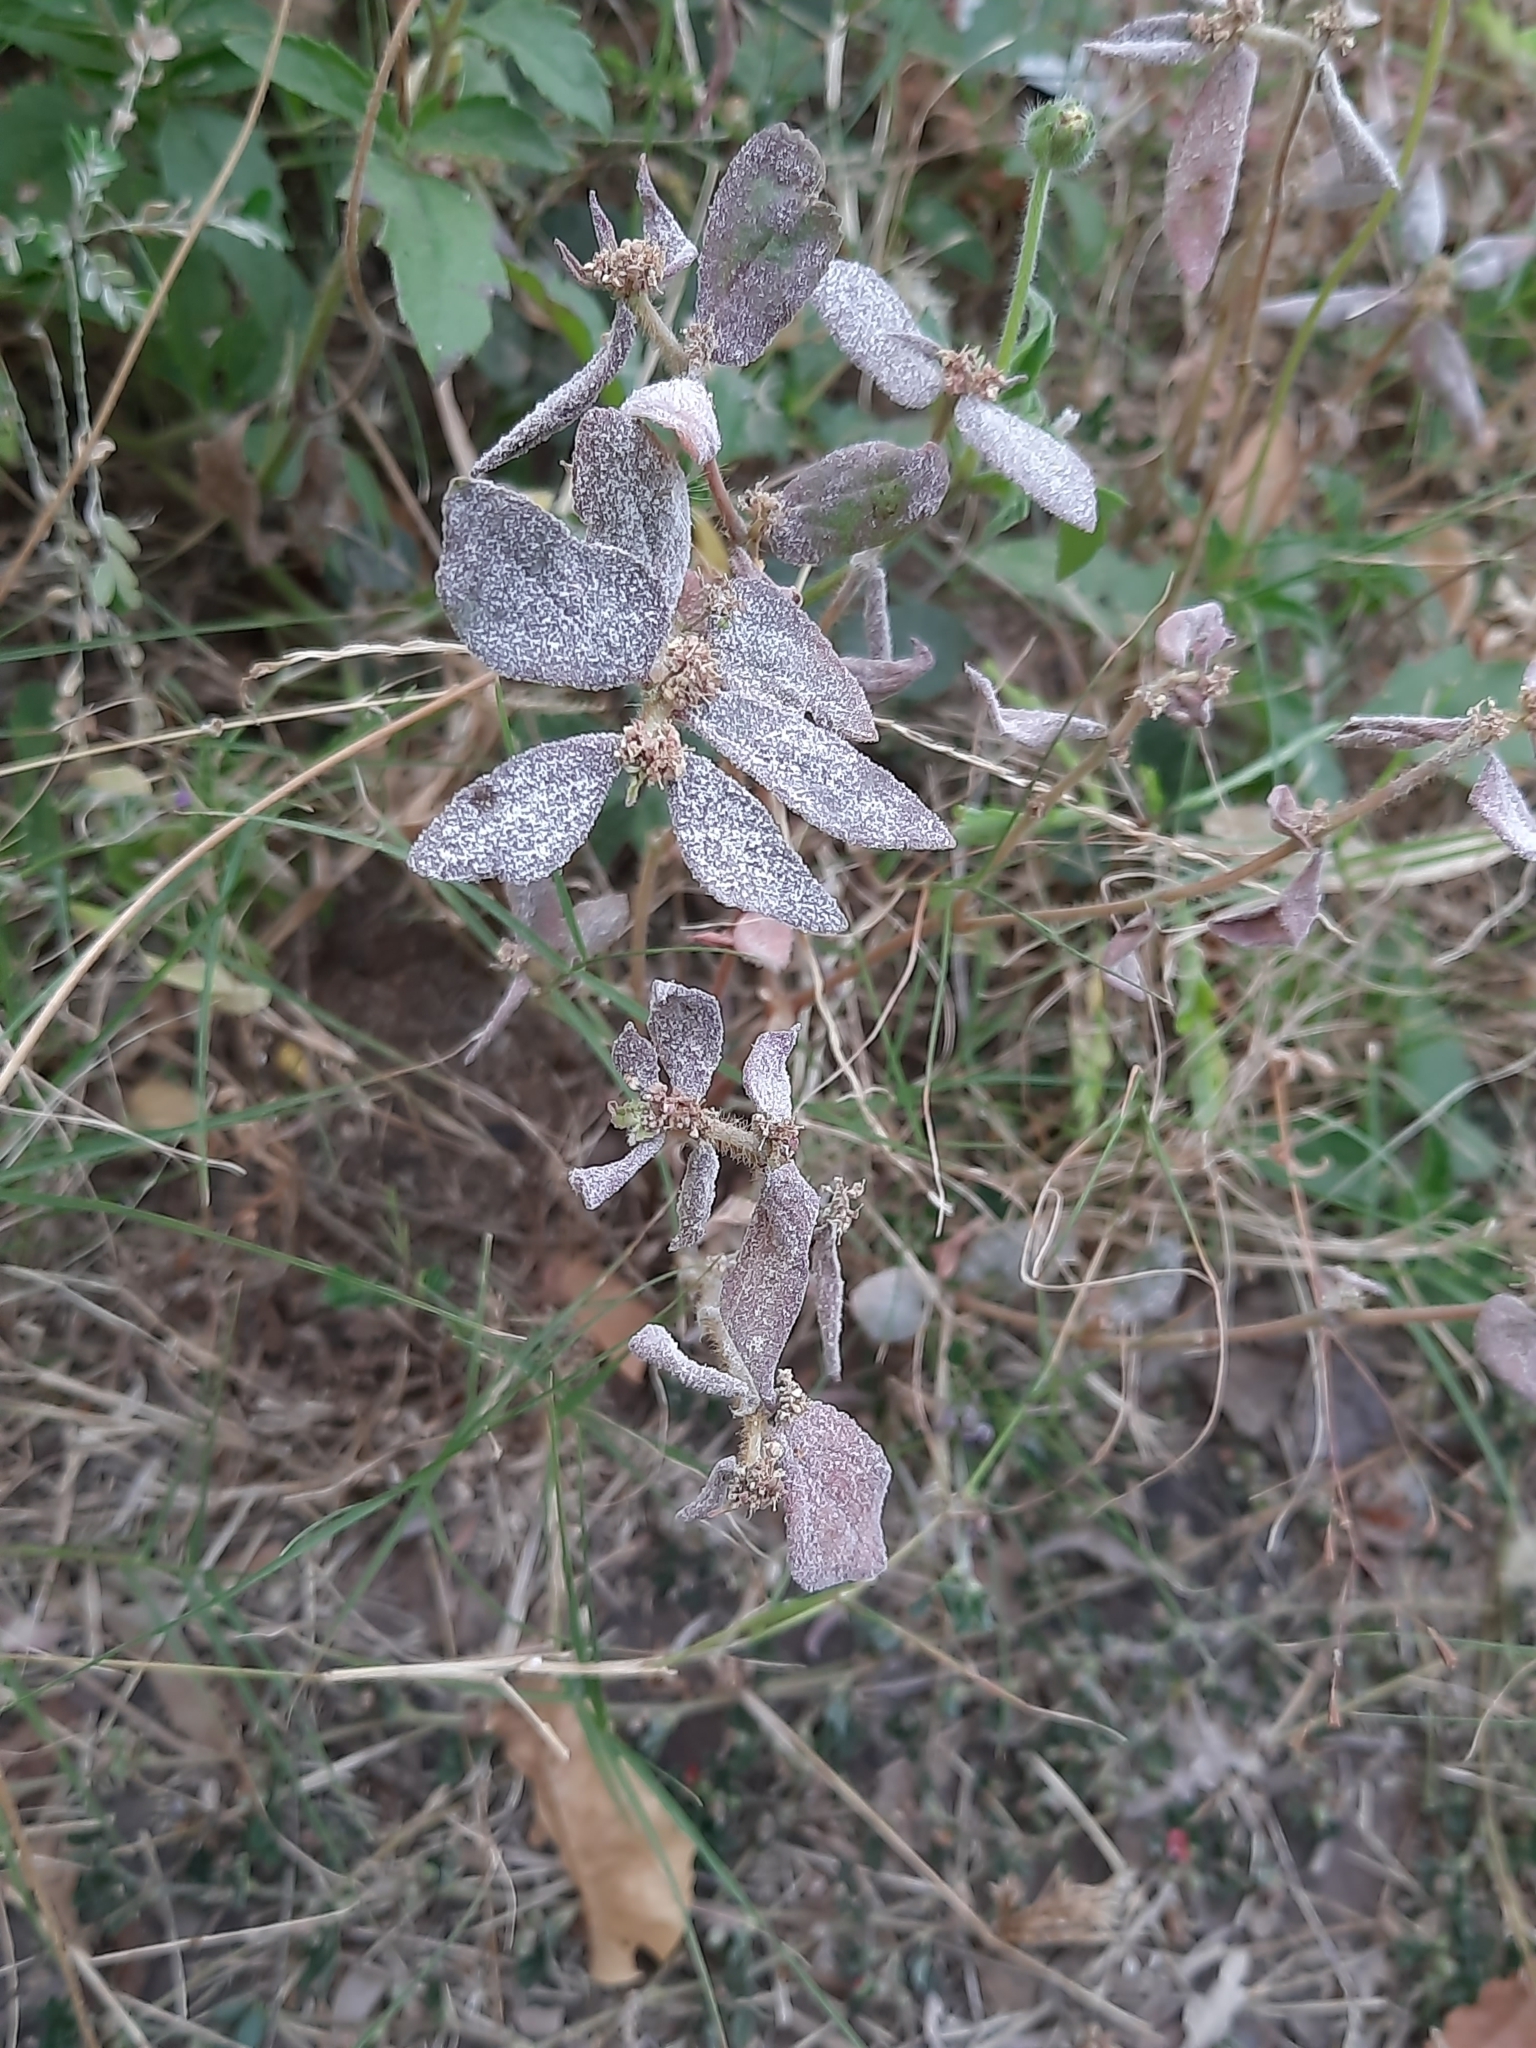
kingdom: Plantae
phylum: Tracheophyta
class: Magnoliopsida
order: Malpighiales
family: Euphorbiaceae
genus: Euphorbia
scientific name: Euphorbia hirta
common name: Pillpod sandmat
